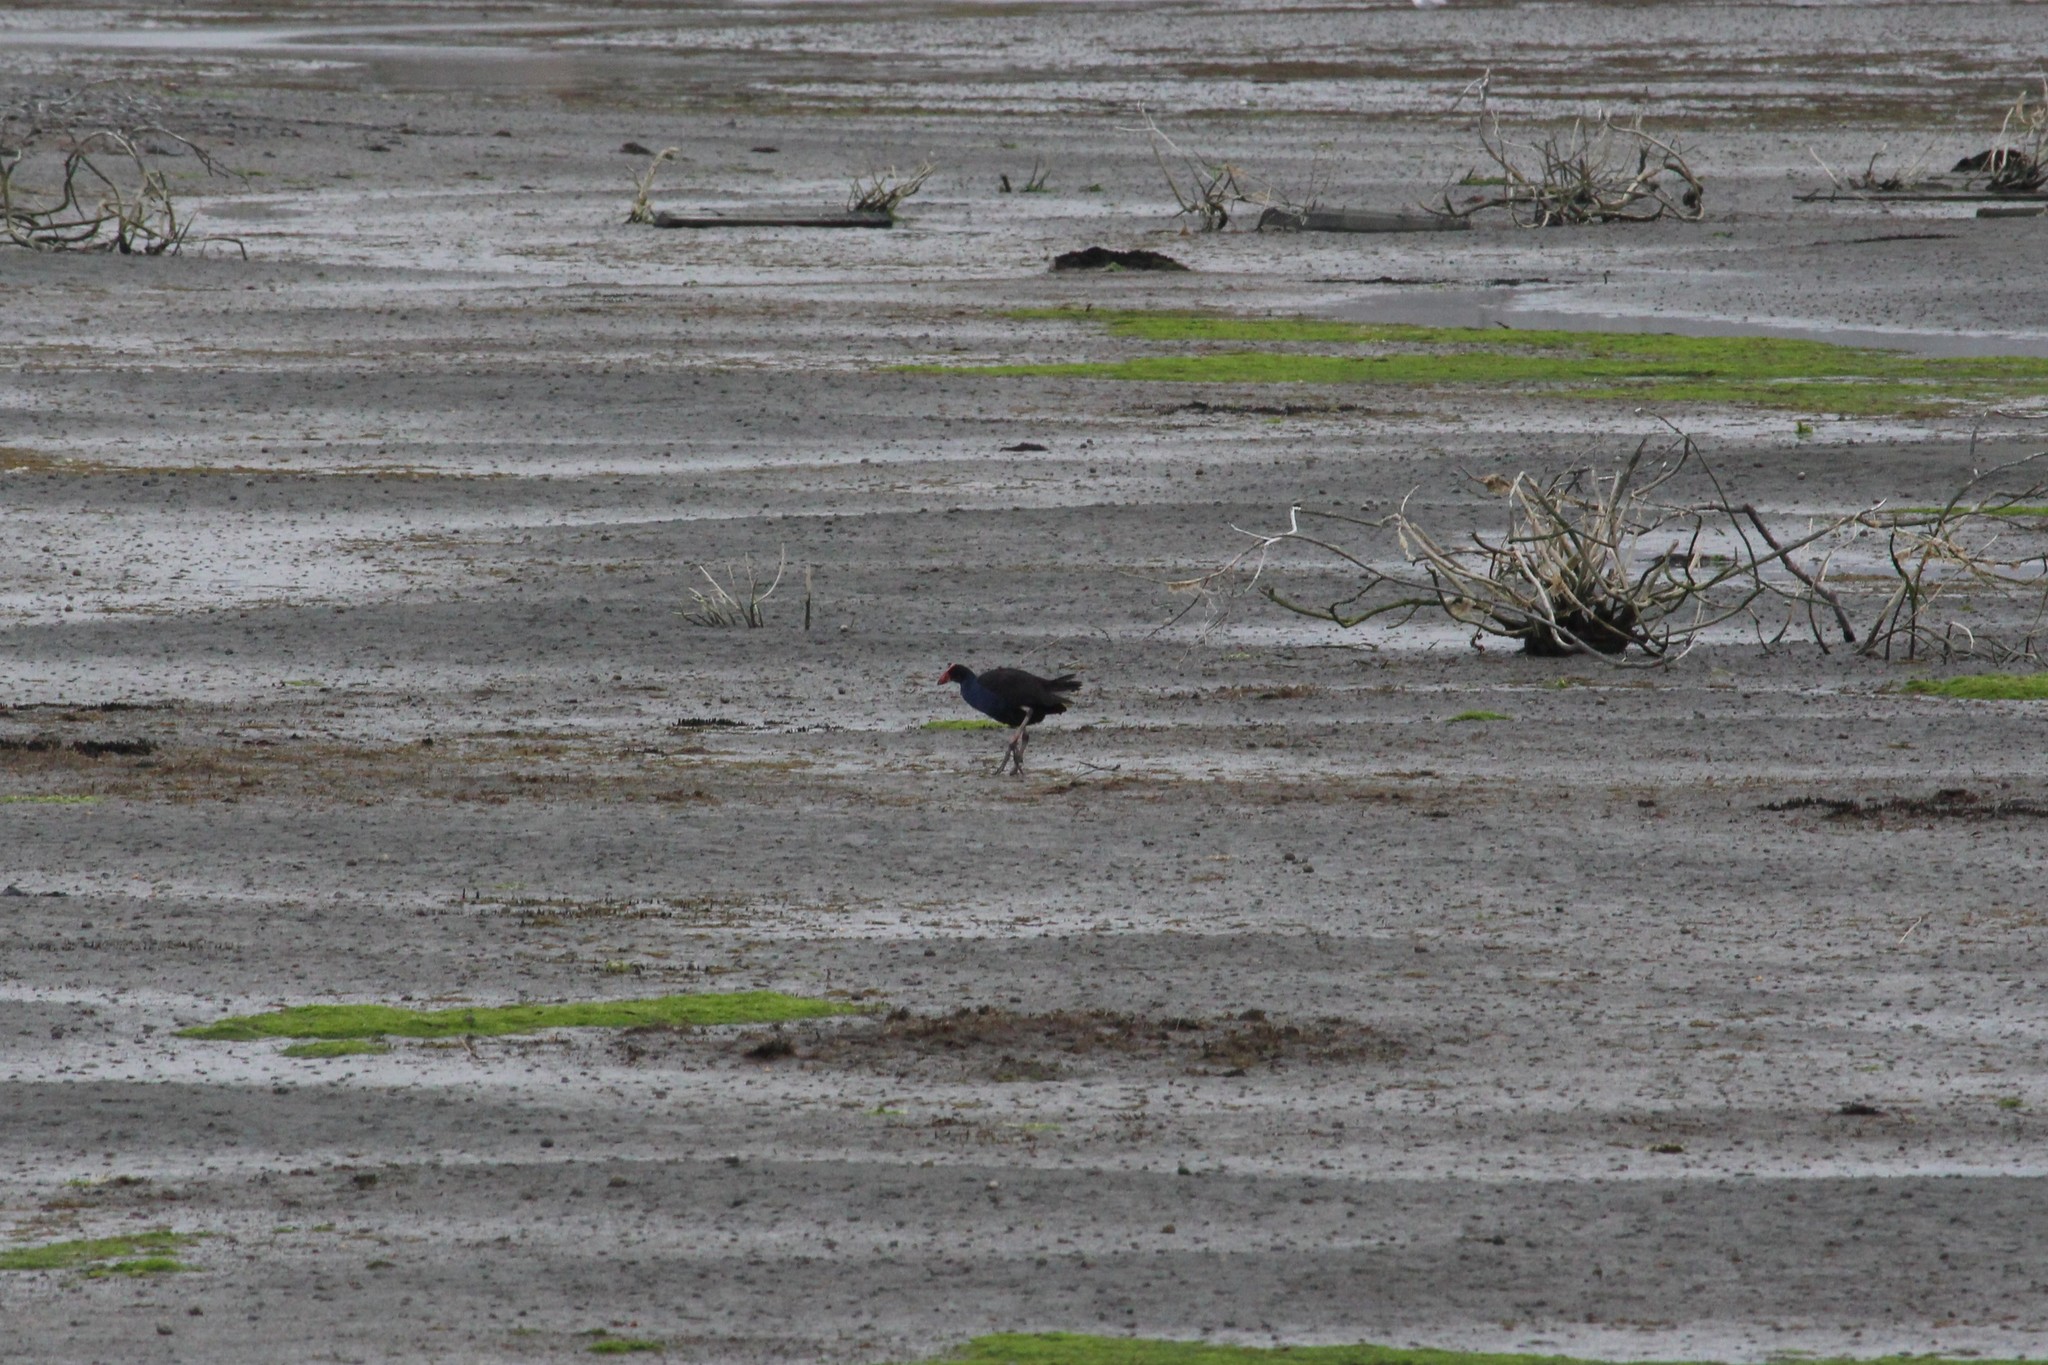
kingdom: Animalia
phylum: Chordata
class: Aves
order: Gruiformes
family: Rallidae
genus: Porphyrio
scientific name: Porphyrio melanotus
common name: Australasian swamphen
